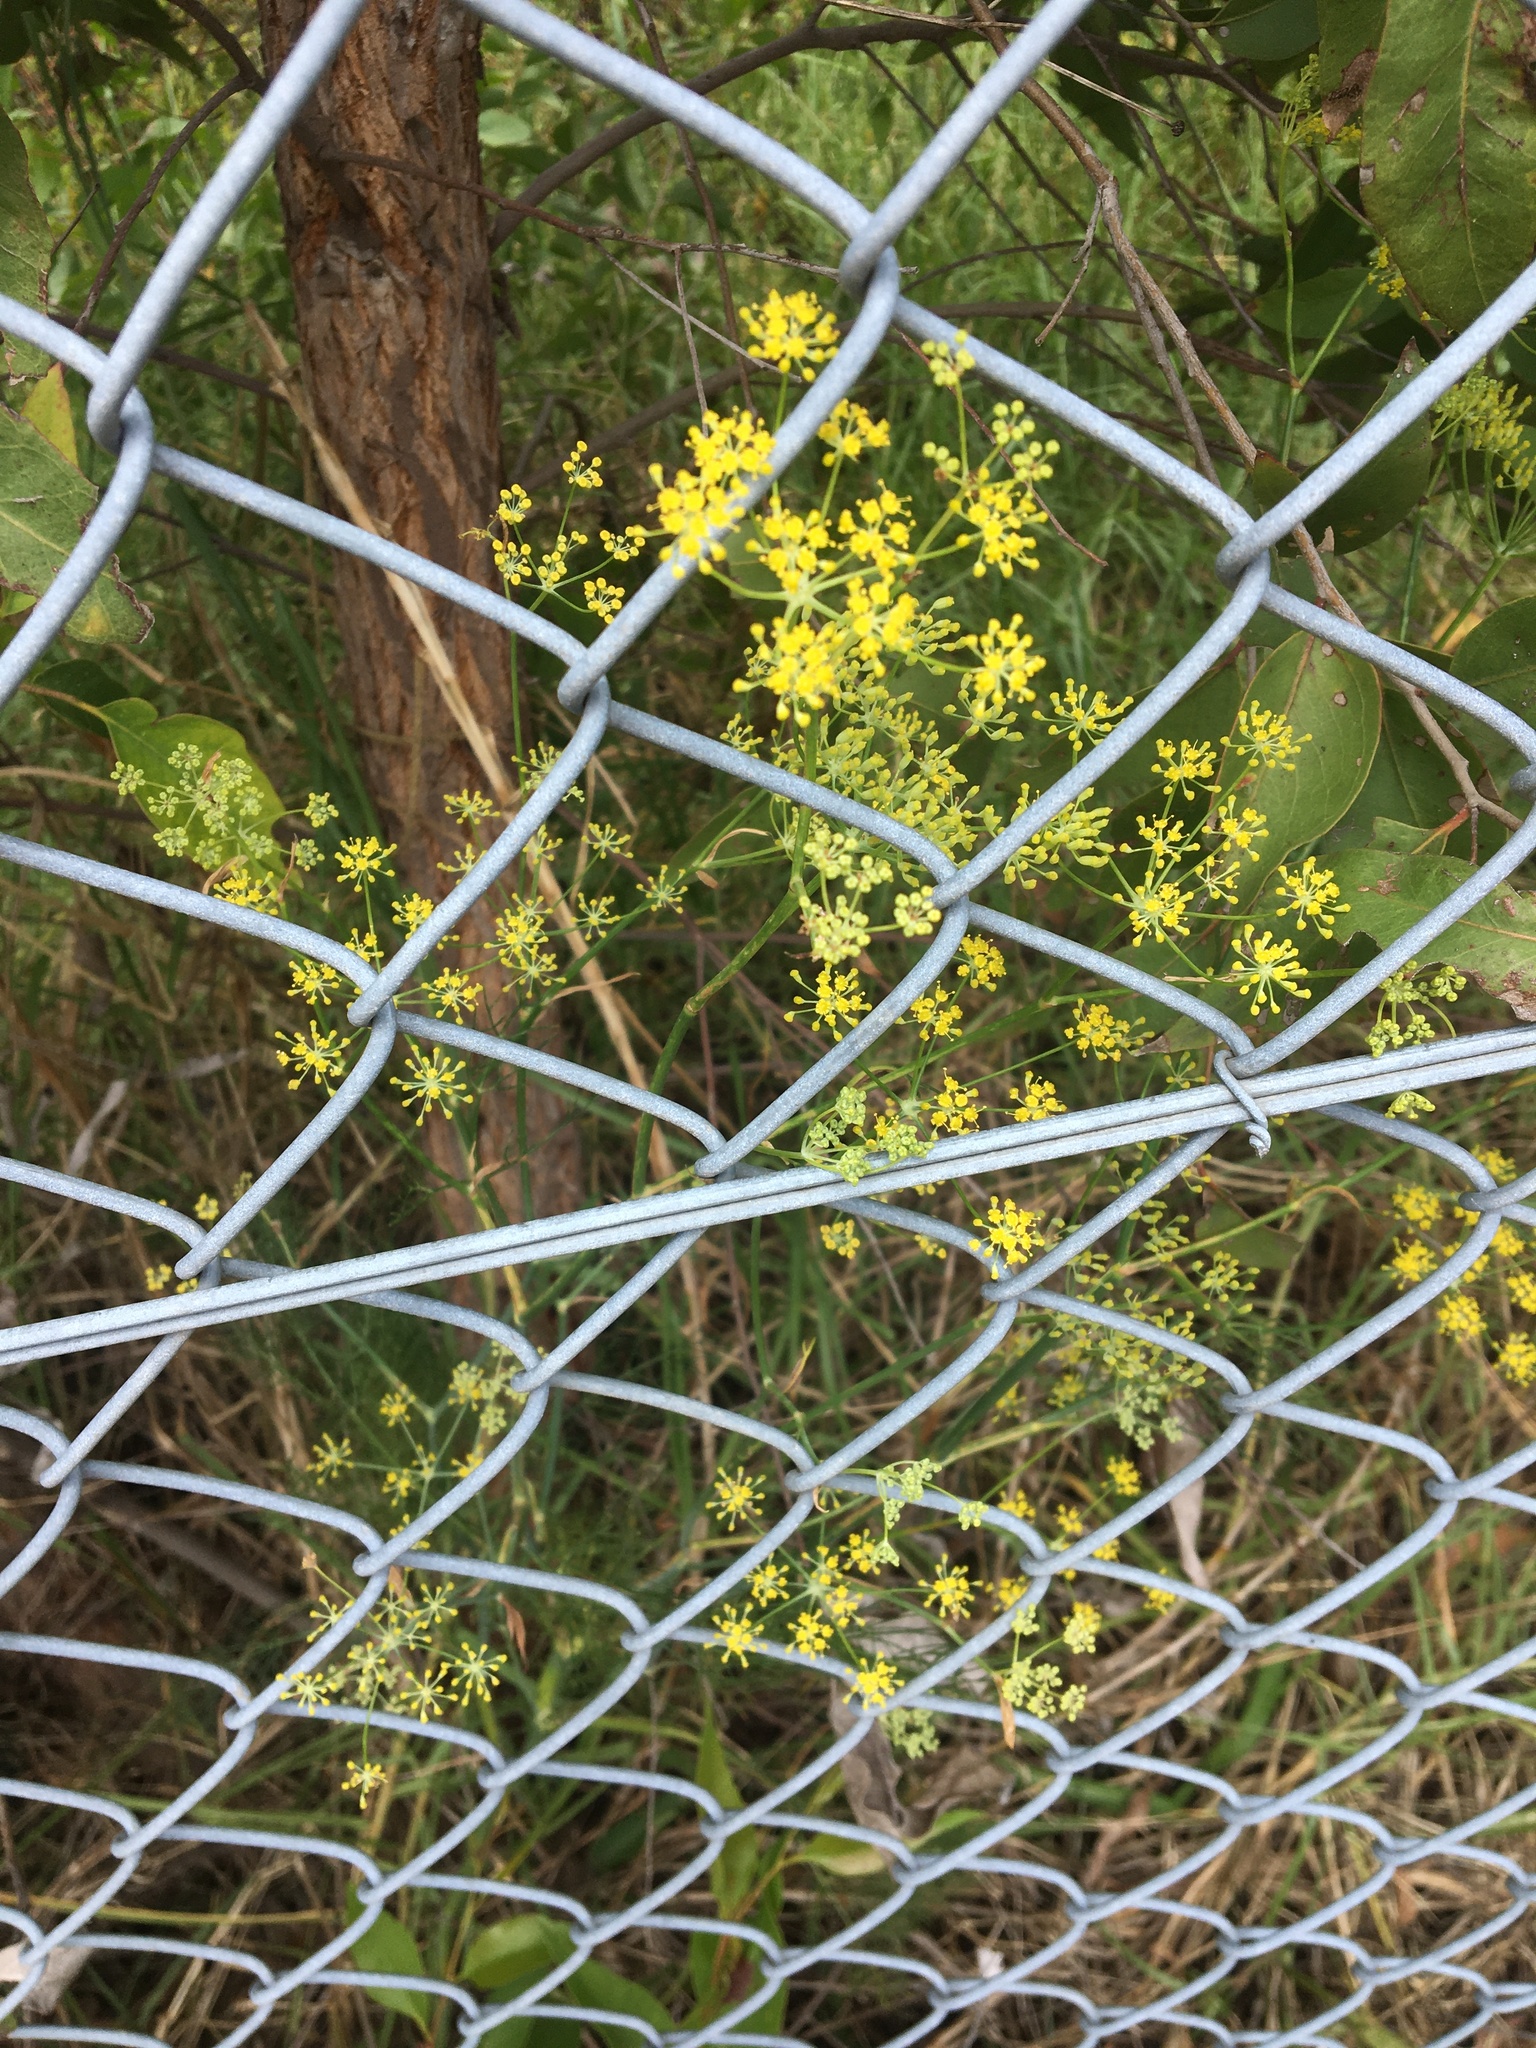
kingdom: Plantae
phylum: Tracheophyta
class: Magnoliopsida
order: Apiales
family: Apiaceae
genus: Foeniculum
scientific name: Foeniculum vulgare
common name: Fennel
